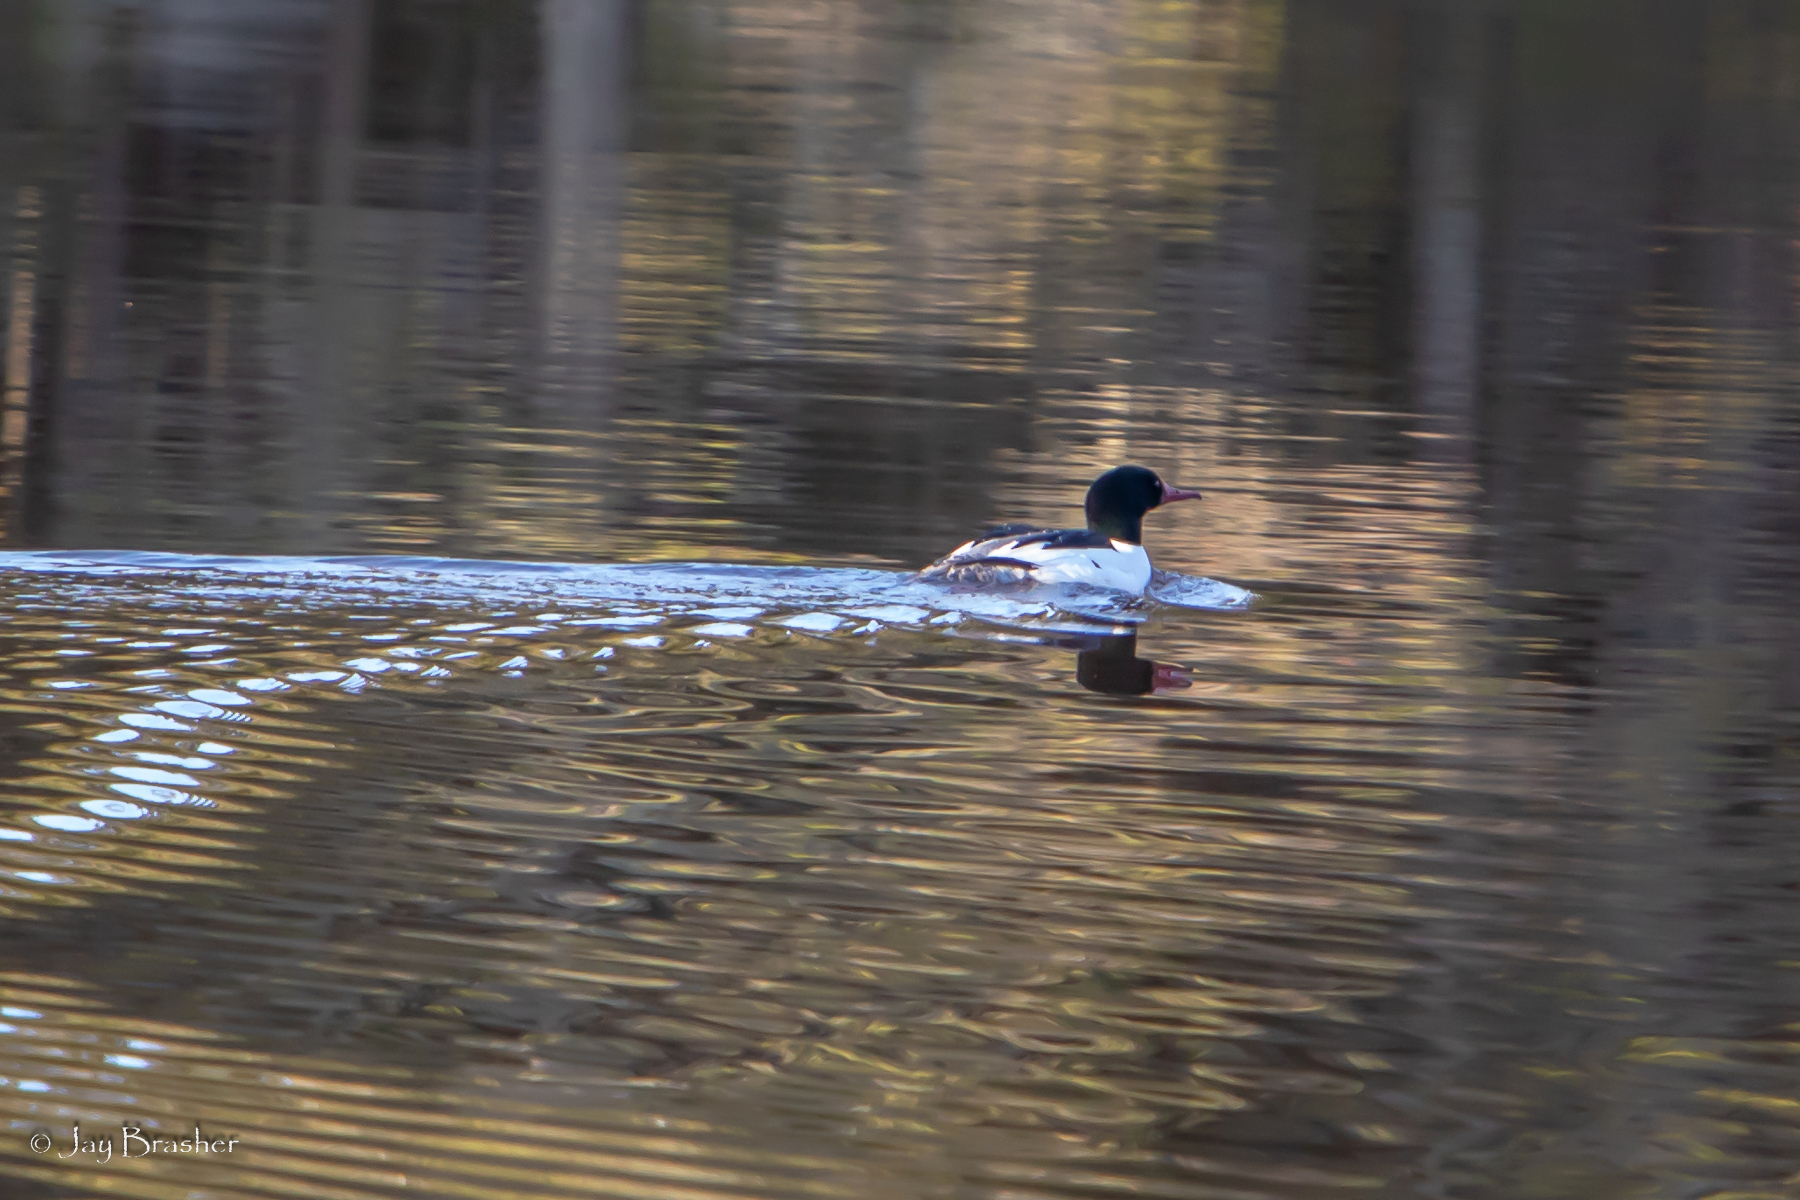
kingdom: Animalia
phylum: Chordata
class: Aves
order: Anseriformes
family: Anatidae
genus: Mergus
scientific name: Mergus merganser
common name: Common merganser
